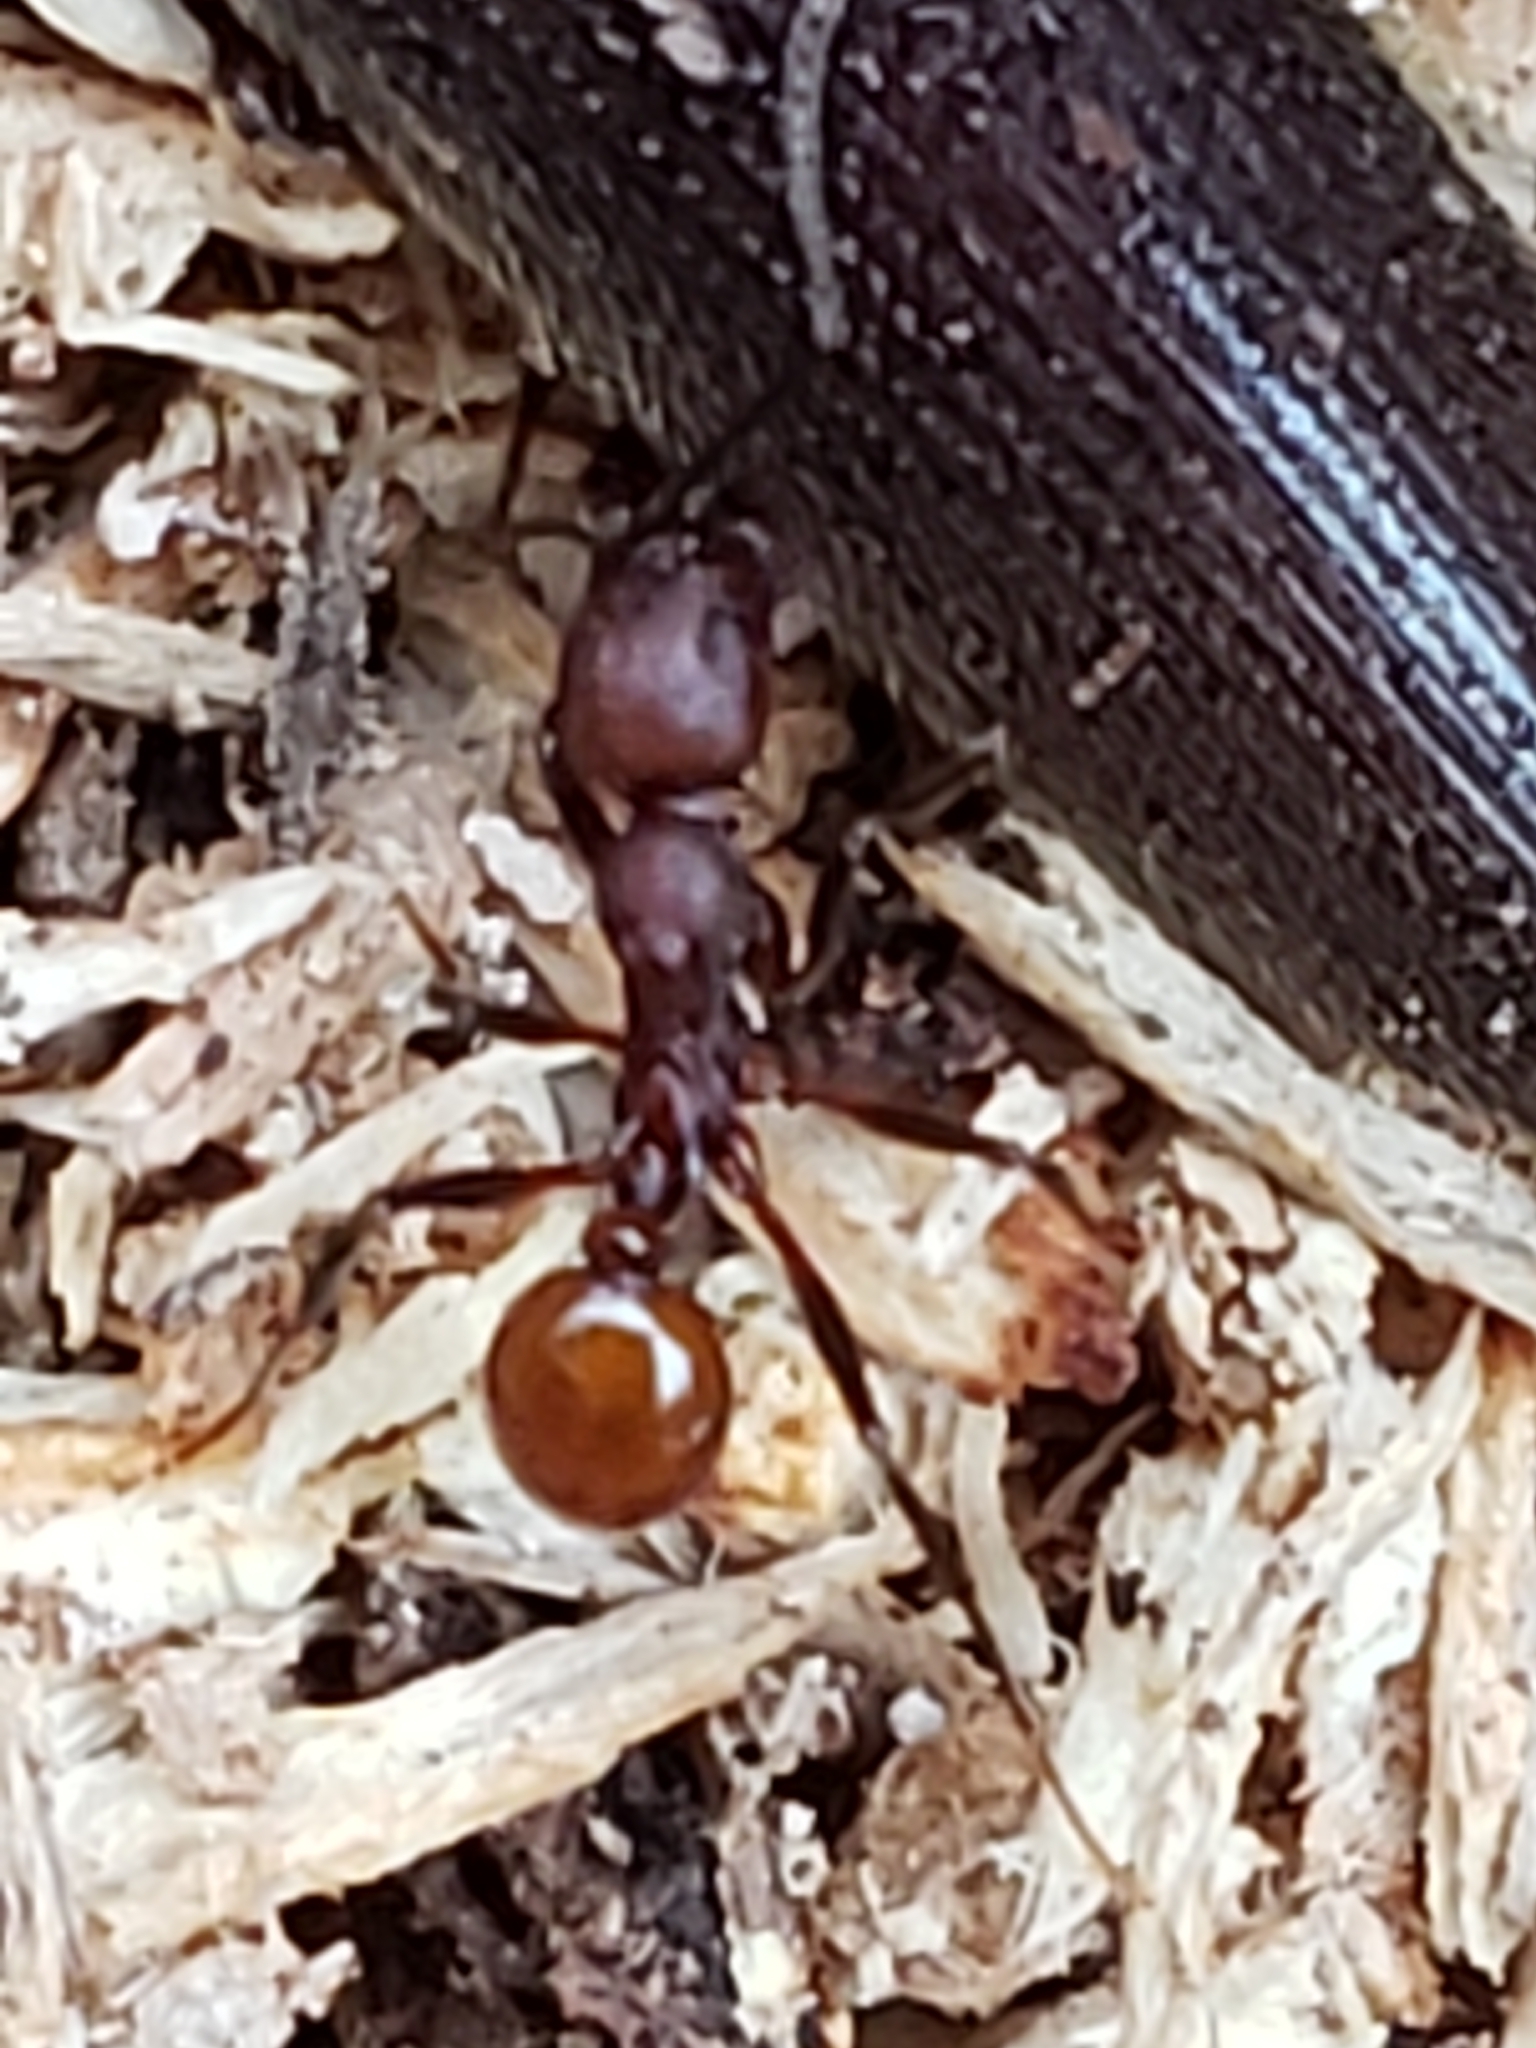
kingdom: Animalia
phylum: Arthropoda
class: Insecta
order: Hymenoptera
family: Formicidae
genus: Aphaenogaster
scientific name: Aphaenogaster tennesseensis
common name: Tennessee thread-waisted ant
